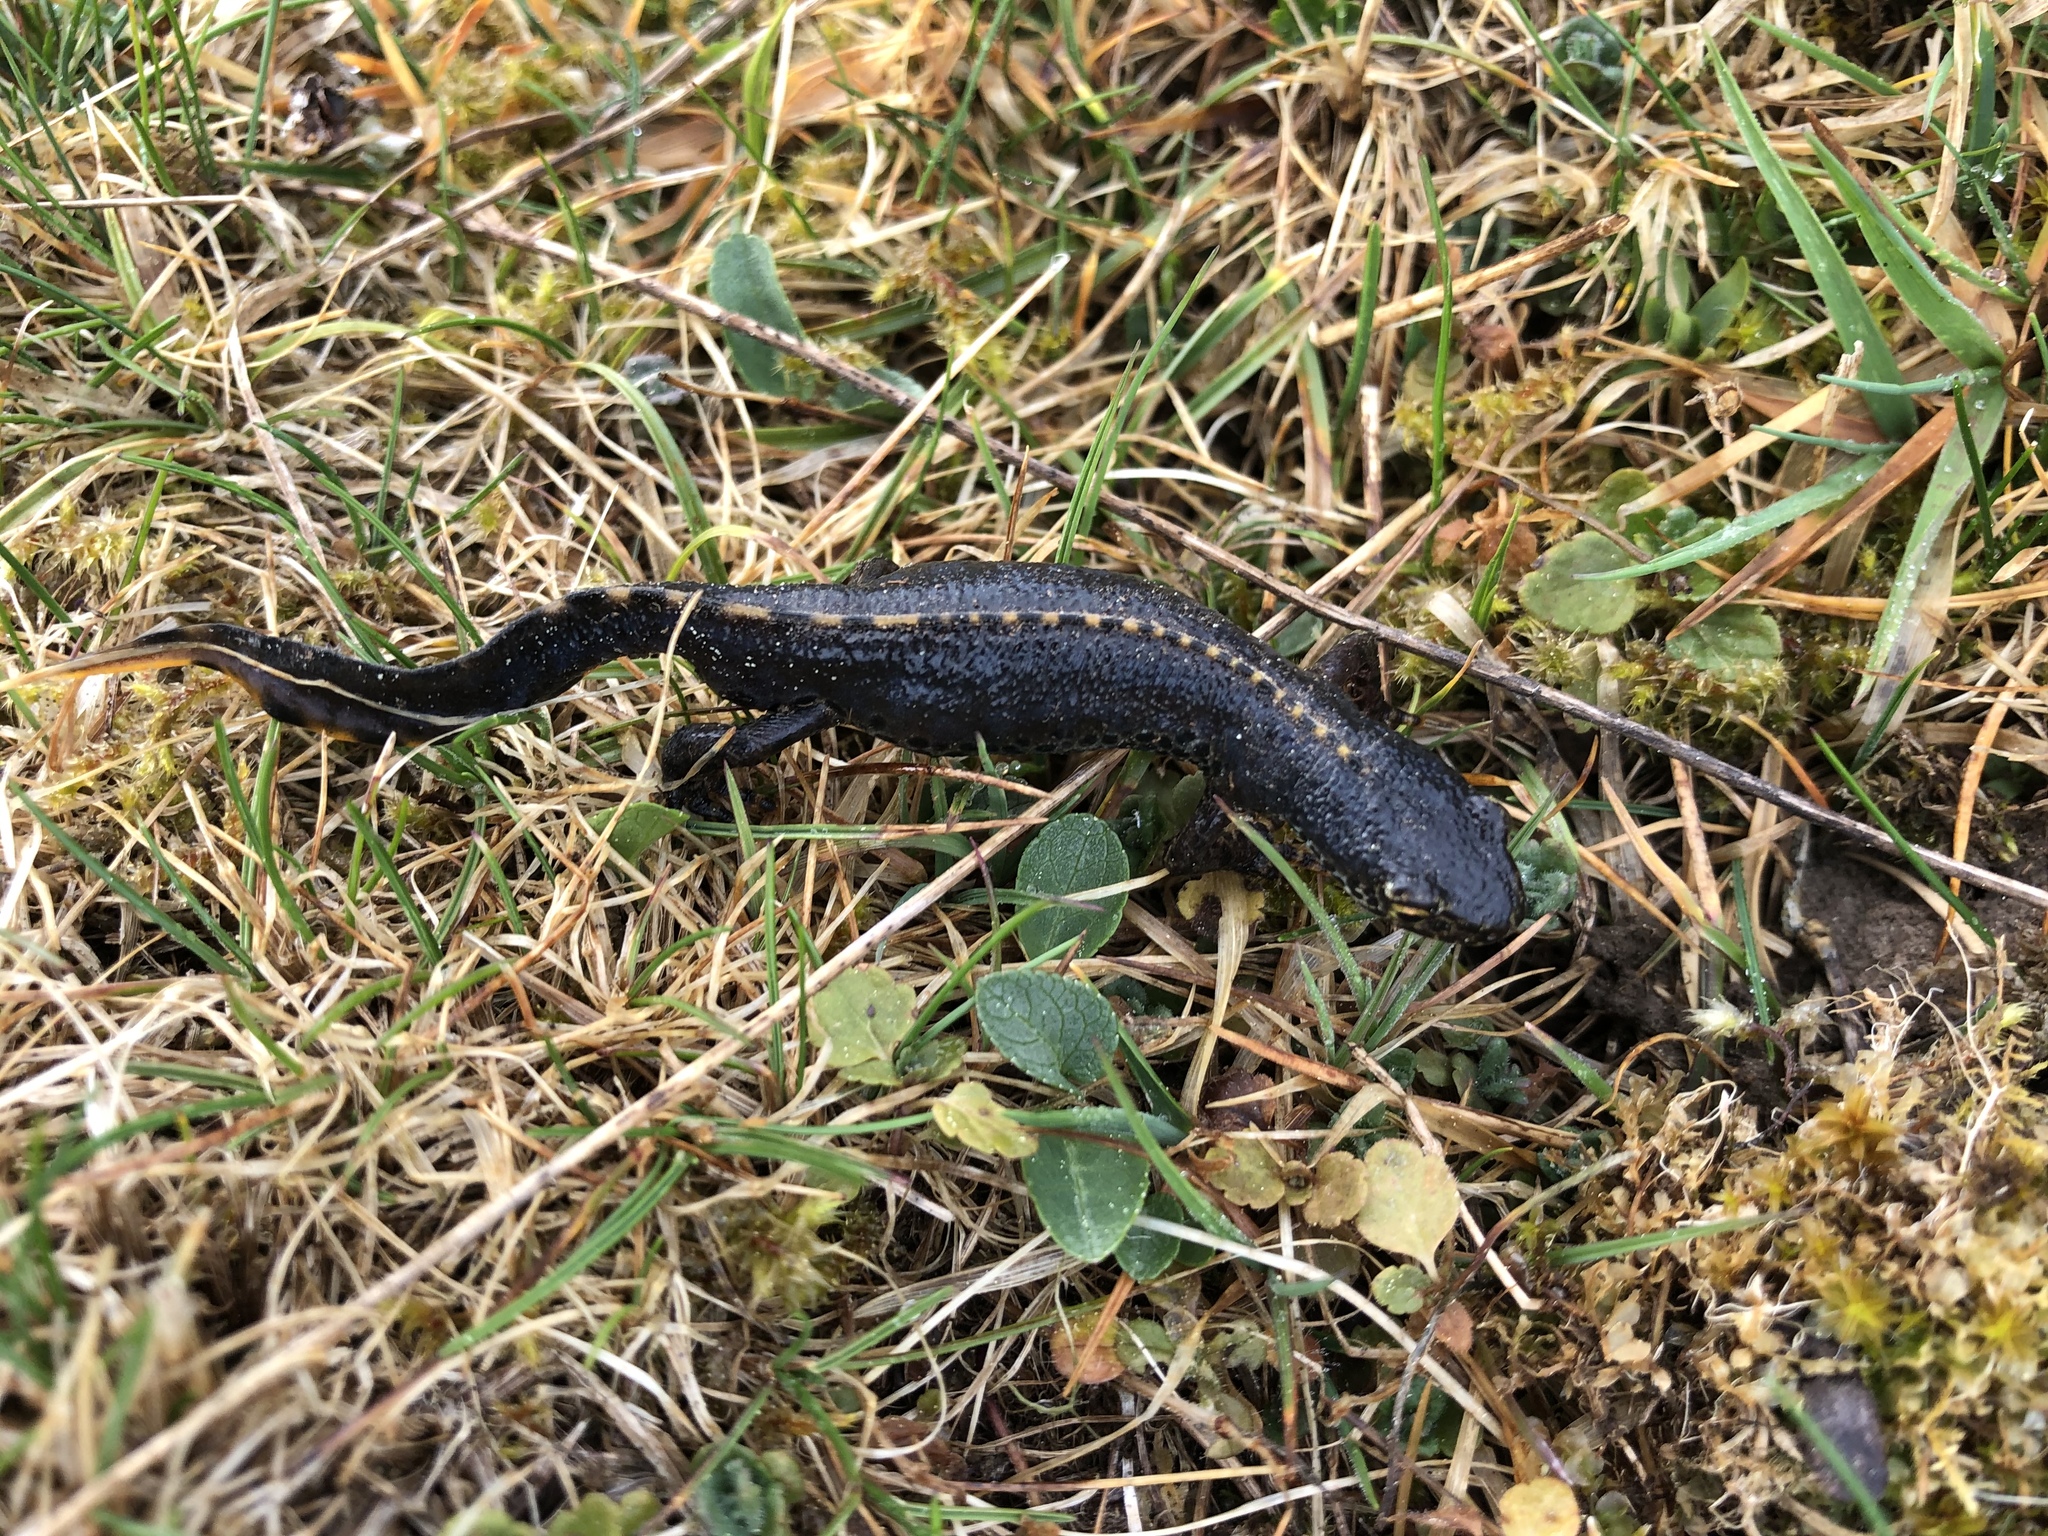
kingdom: Animalia
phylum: Chordata
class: Amphibia
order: Caudata
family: Salamandridae
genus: Ichthyosaura
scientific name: Ichthyosaura alpestris
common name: Alpine newt
